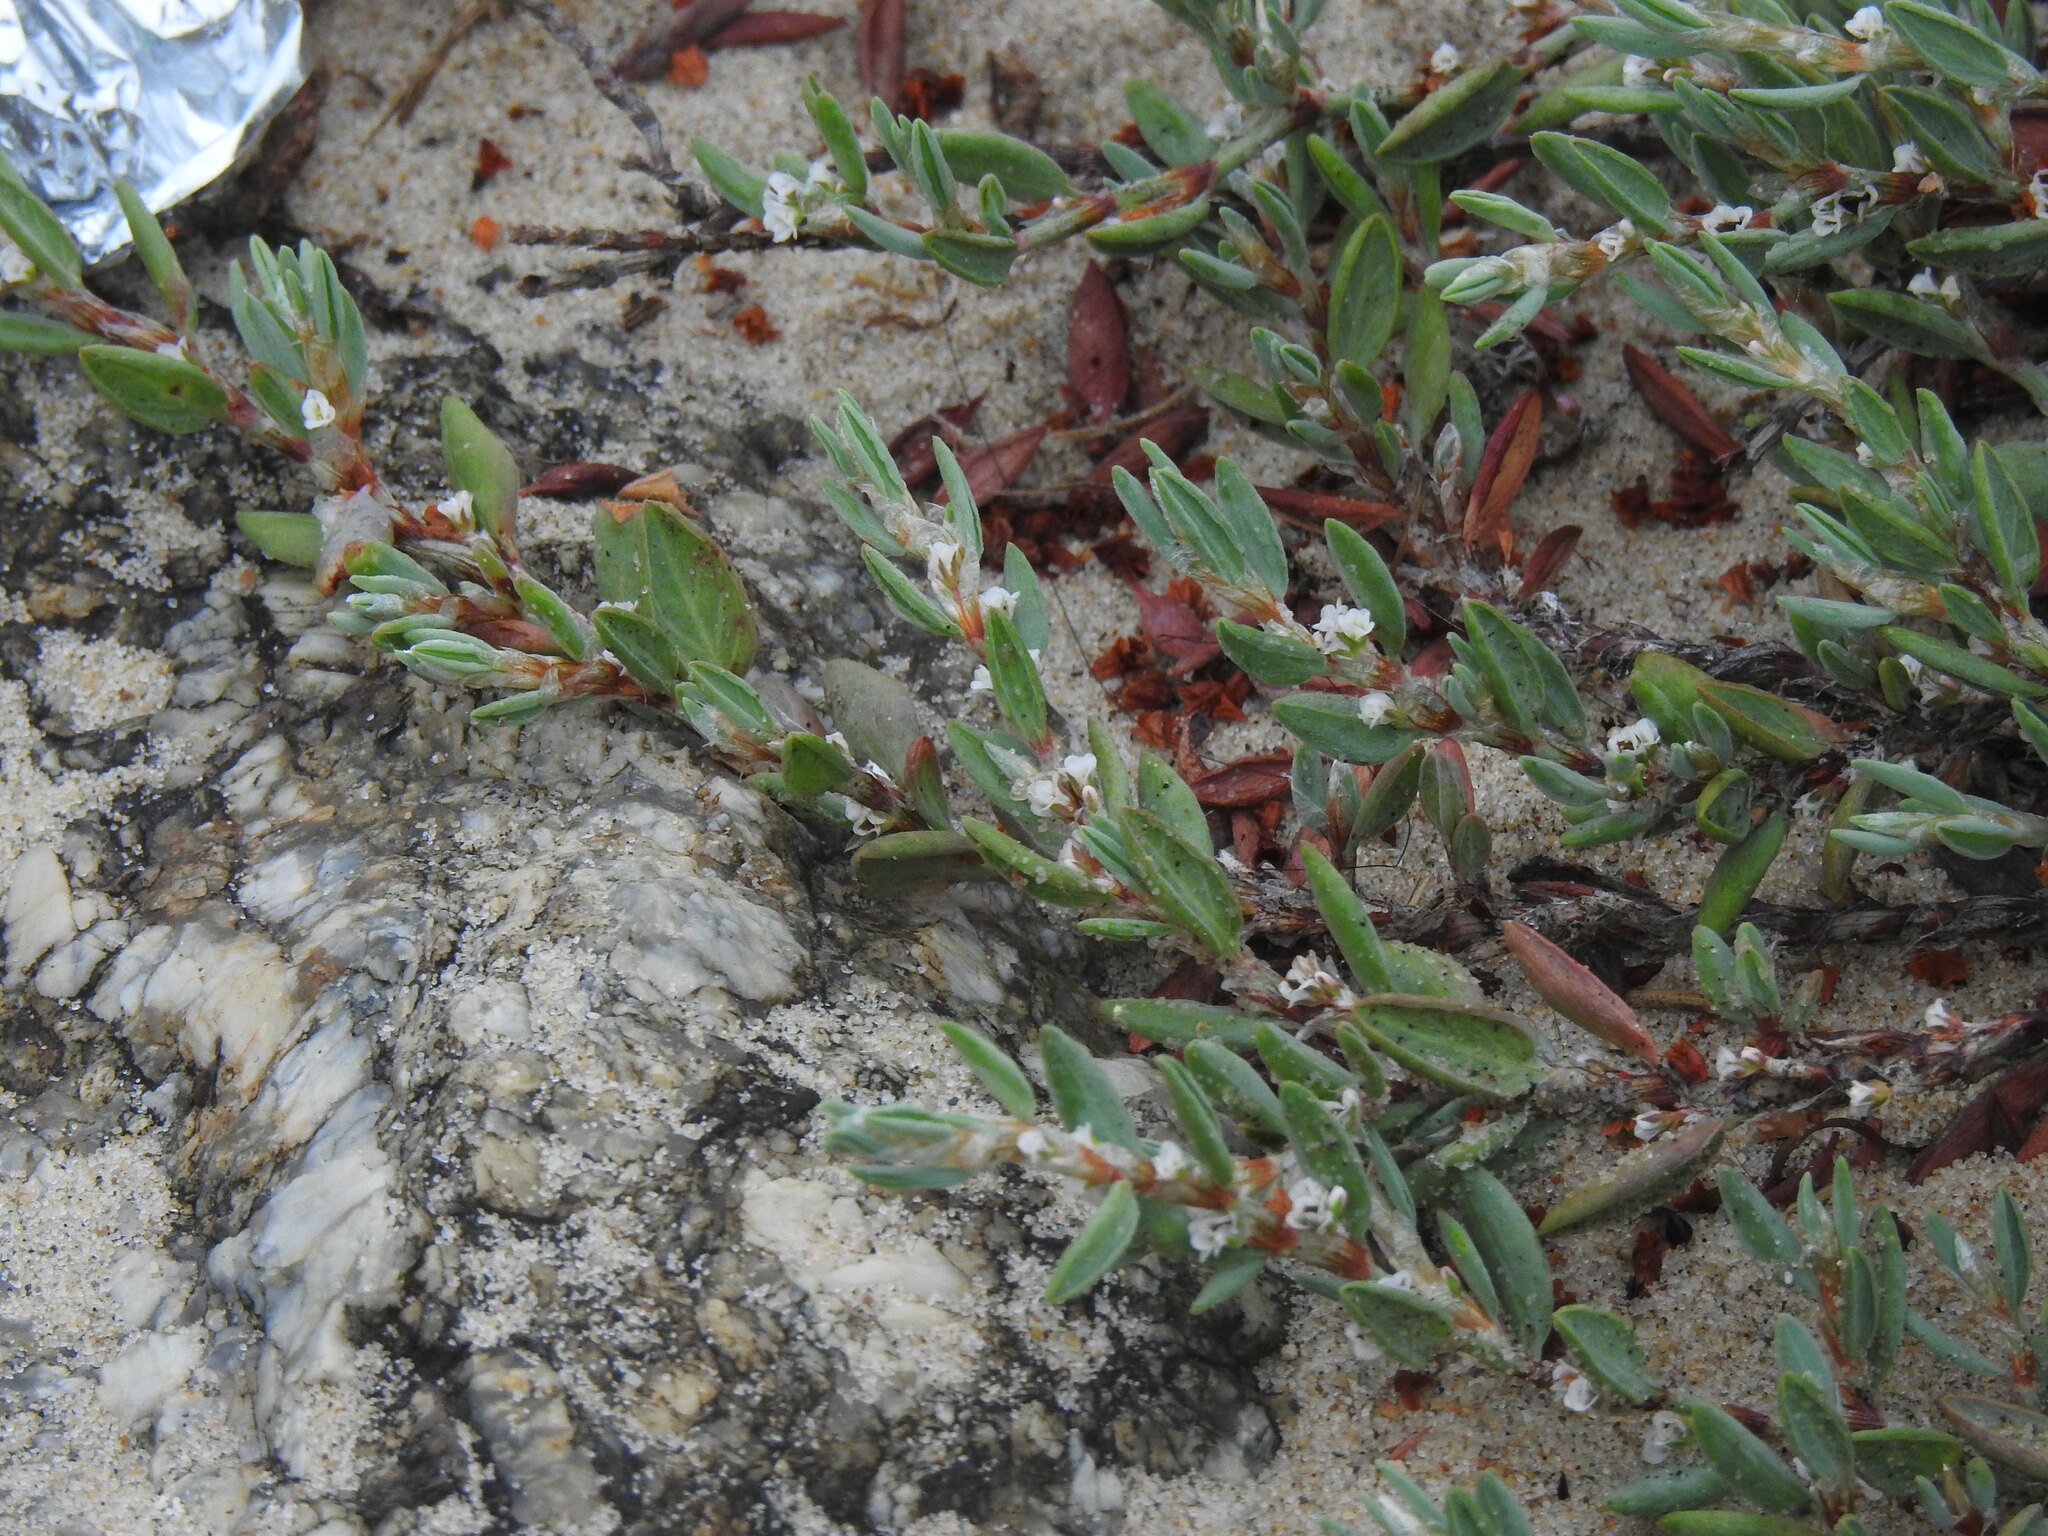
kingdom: Plantae
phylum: Tracheophyta
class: Magnoliopsida
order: Caryophyllales
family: Polygonaceae
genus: Polygonum
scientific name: Polygonum maritimum
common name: Sea knotgrass
